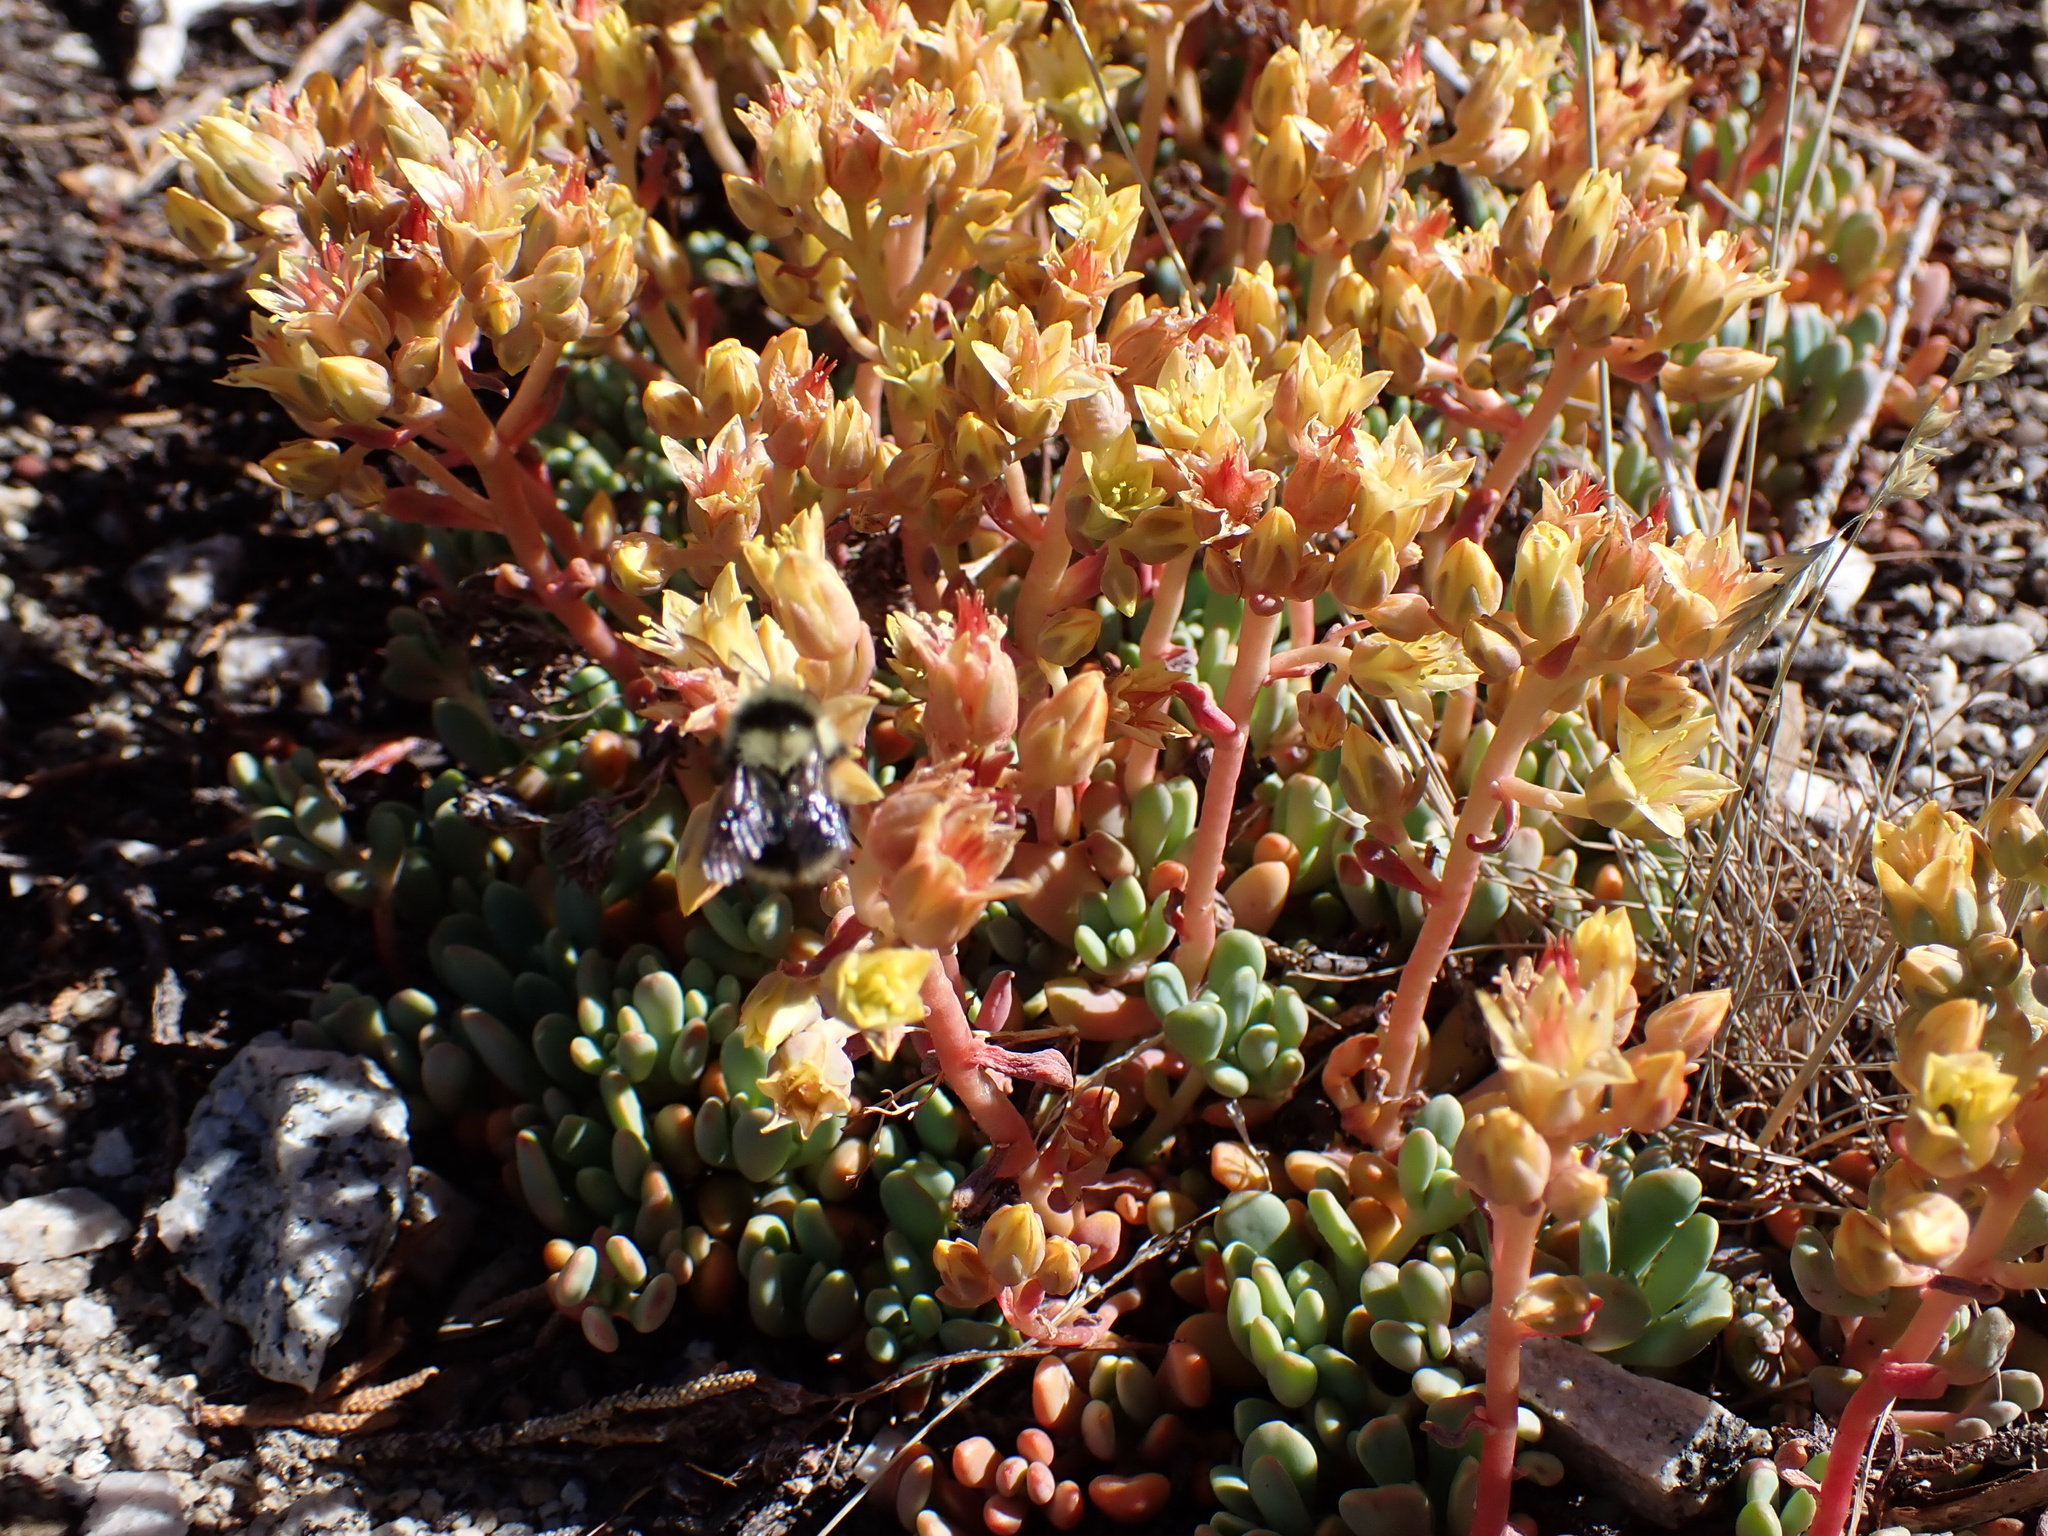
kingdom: Plantae
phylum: Tracheophyta
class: Magnoliopsida
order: Saxifragales
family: Crassulaceae
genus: Sedum
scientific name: Sedum obtusatum
